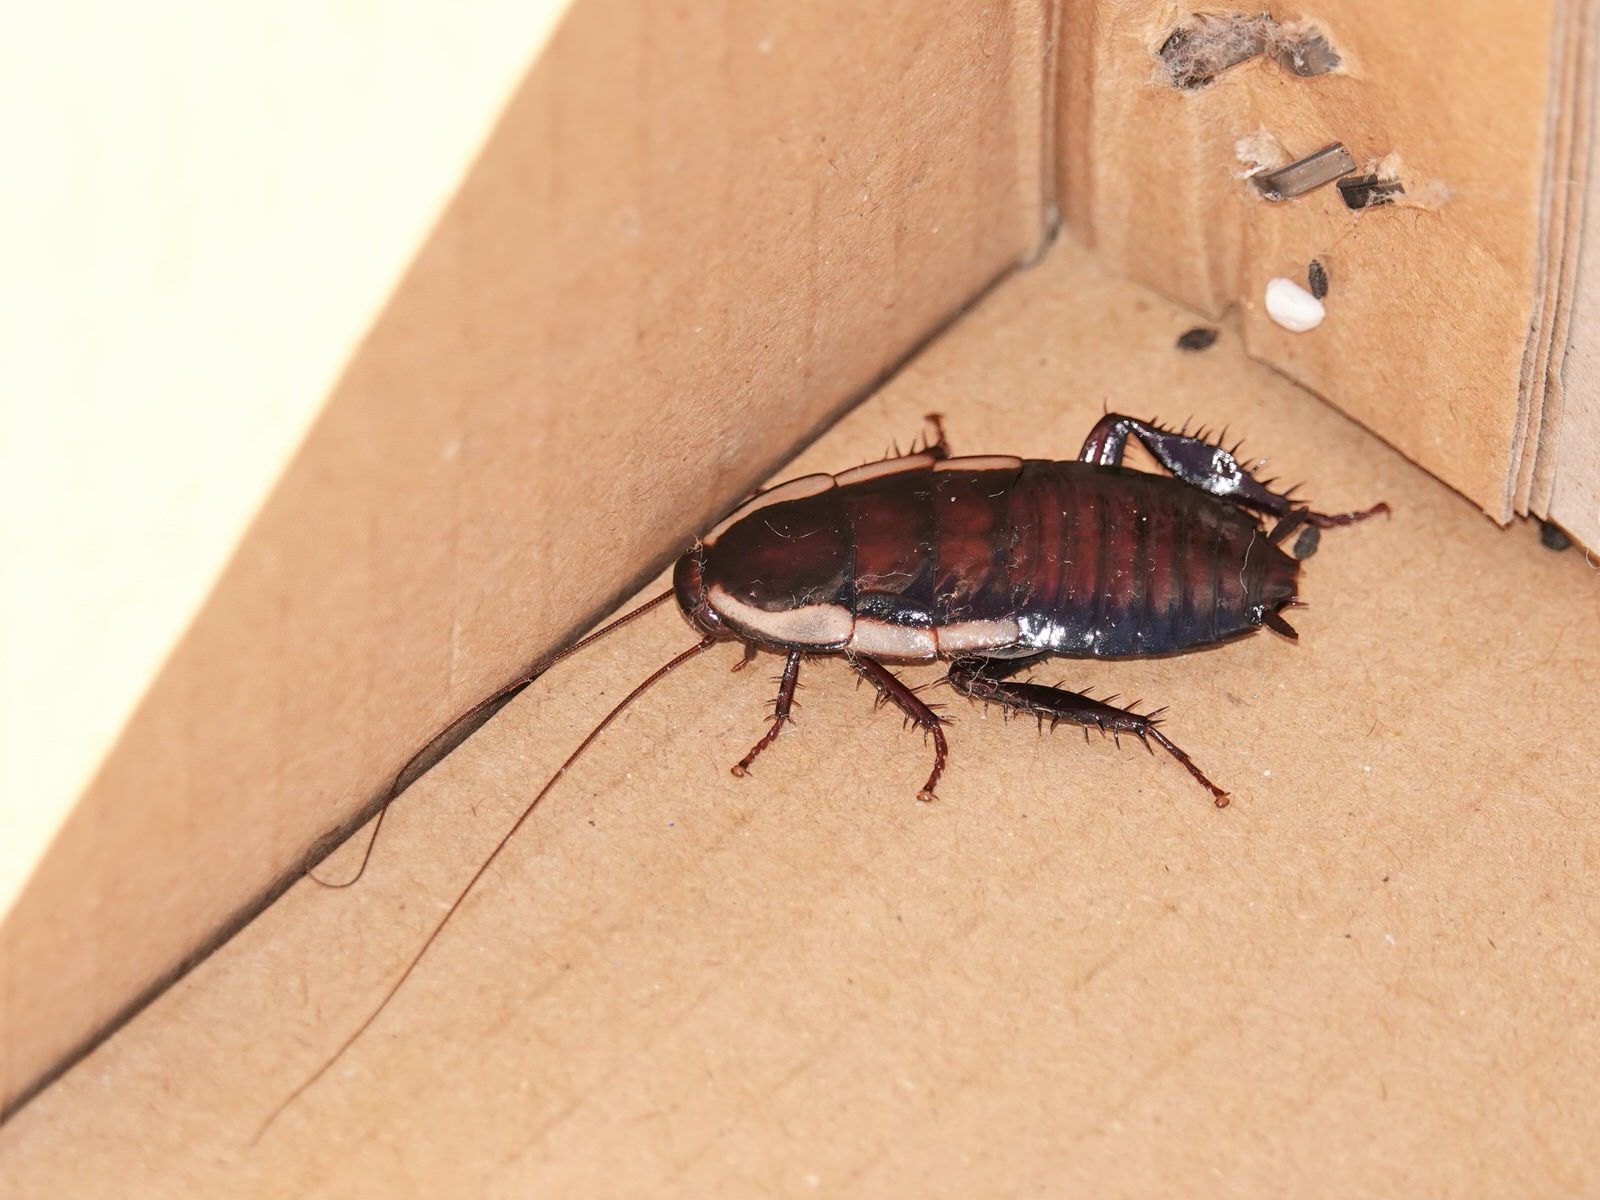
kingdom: Animalia
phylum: Arthropoda
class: Insecta
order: Blattodea
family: Blattidae
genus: Drymaplaneta
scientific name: Drymaplaneta semivitta
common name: Gisborne cockroach
